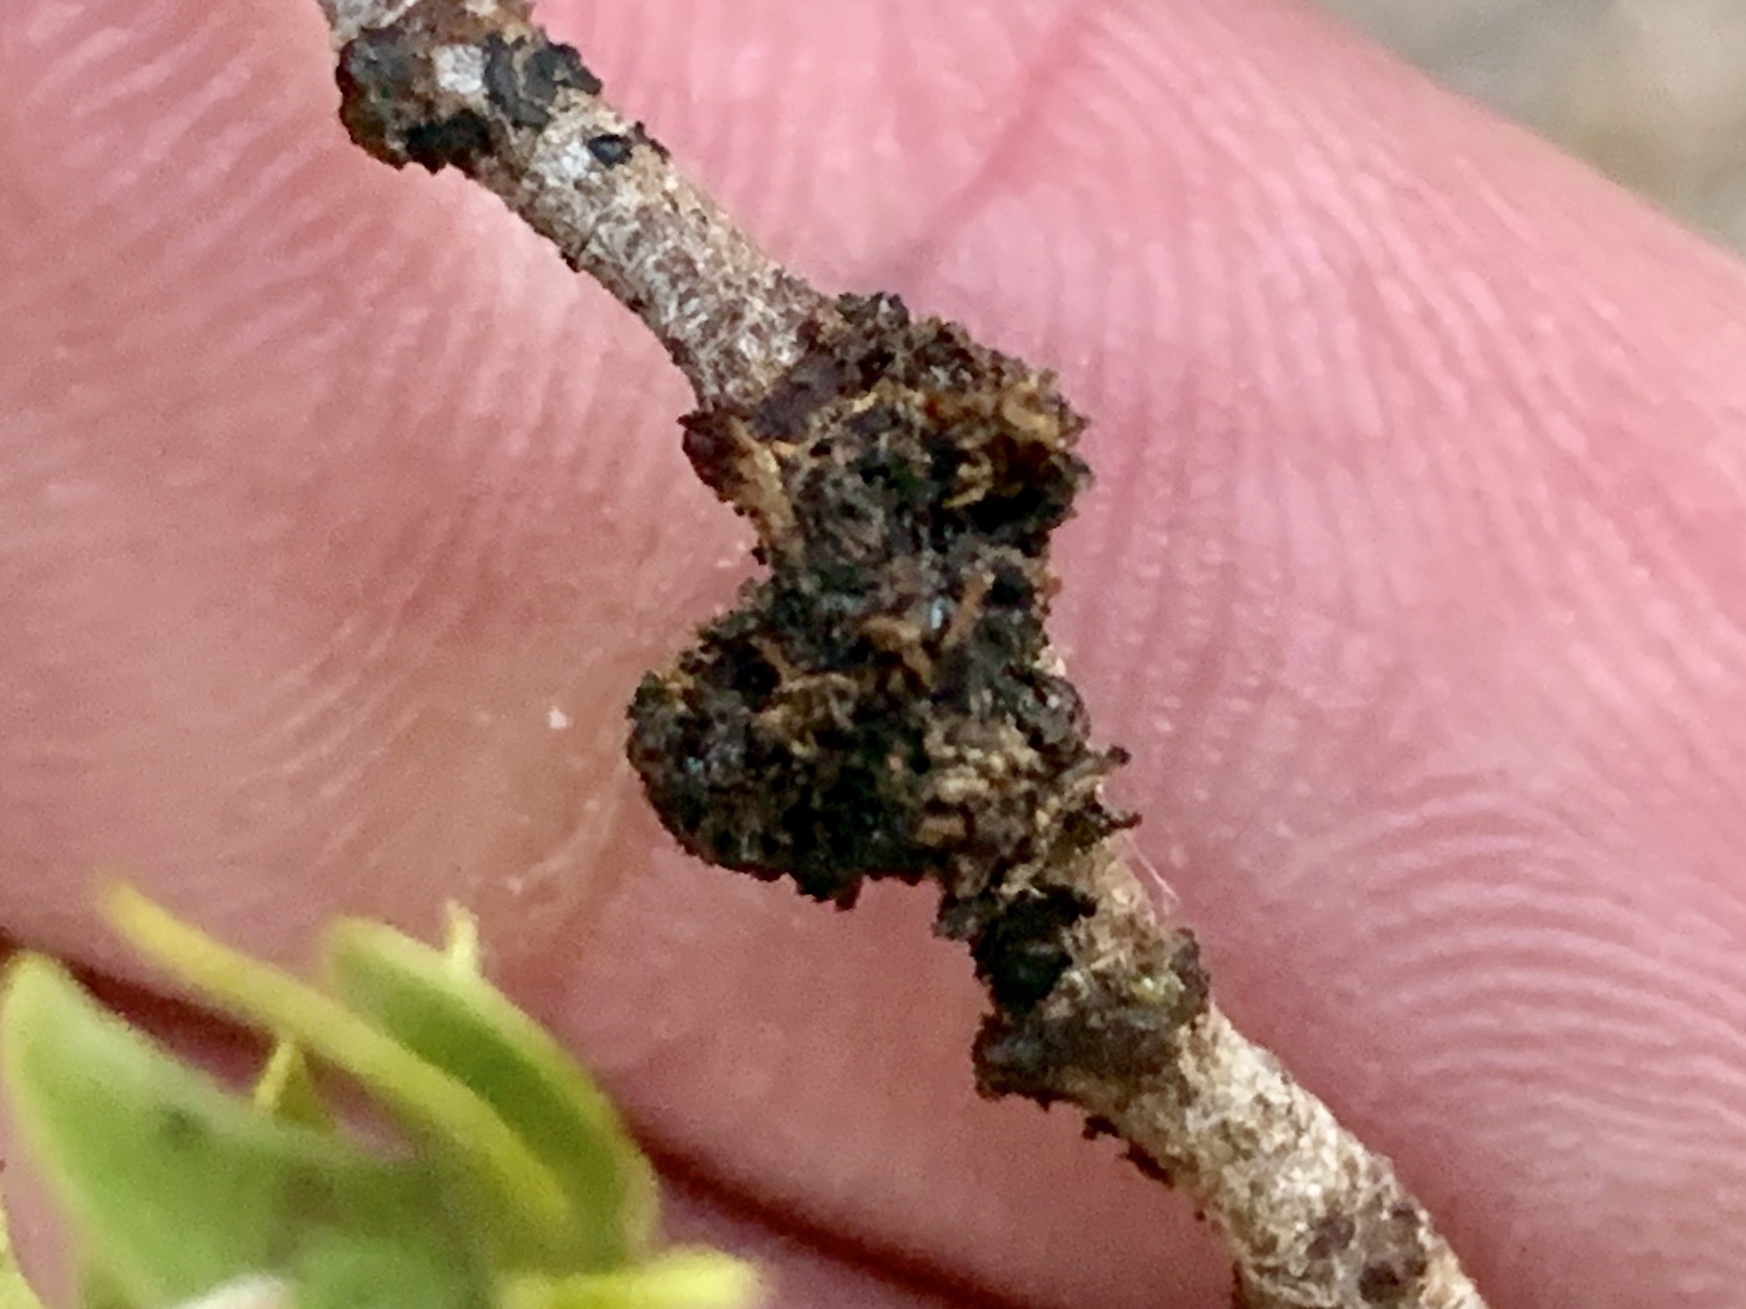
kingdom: Animalia
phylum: Arthropoda
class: Insecta
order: Diptera
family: Cecidomyiidae
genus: Asphondylia
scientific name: Asphondylia auripila
